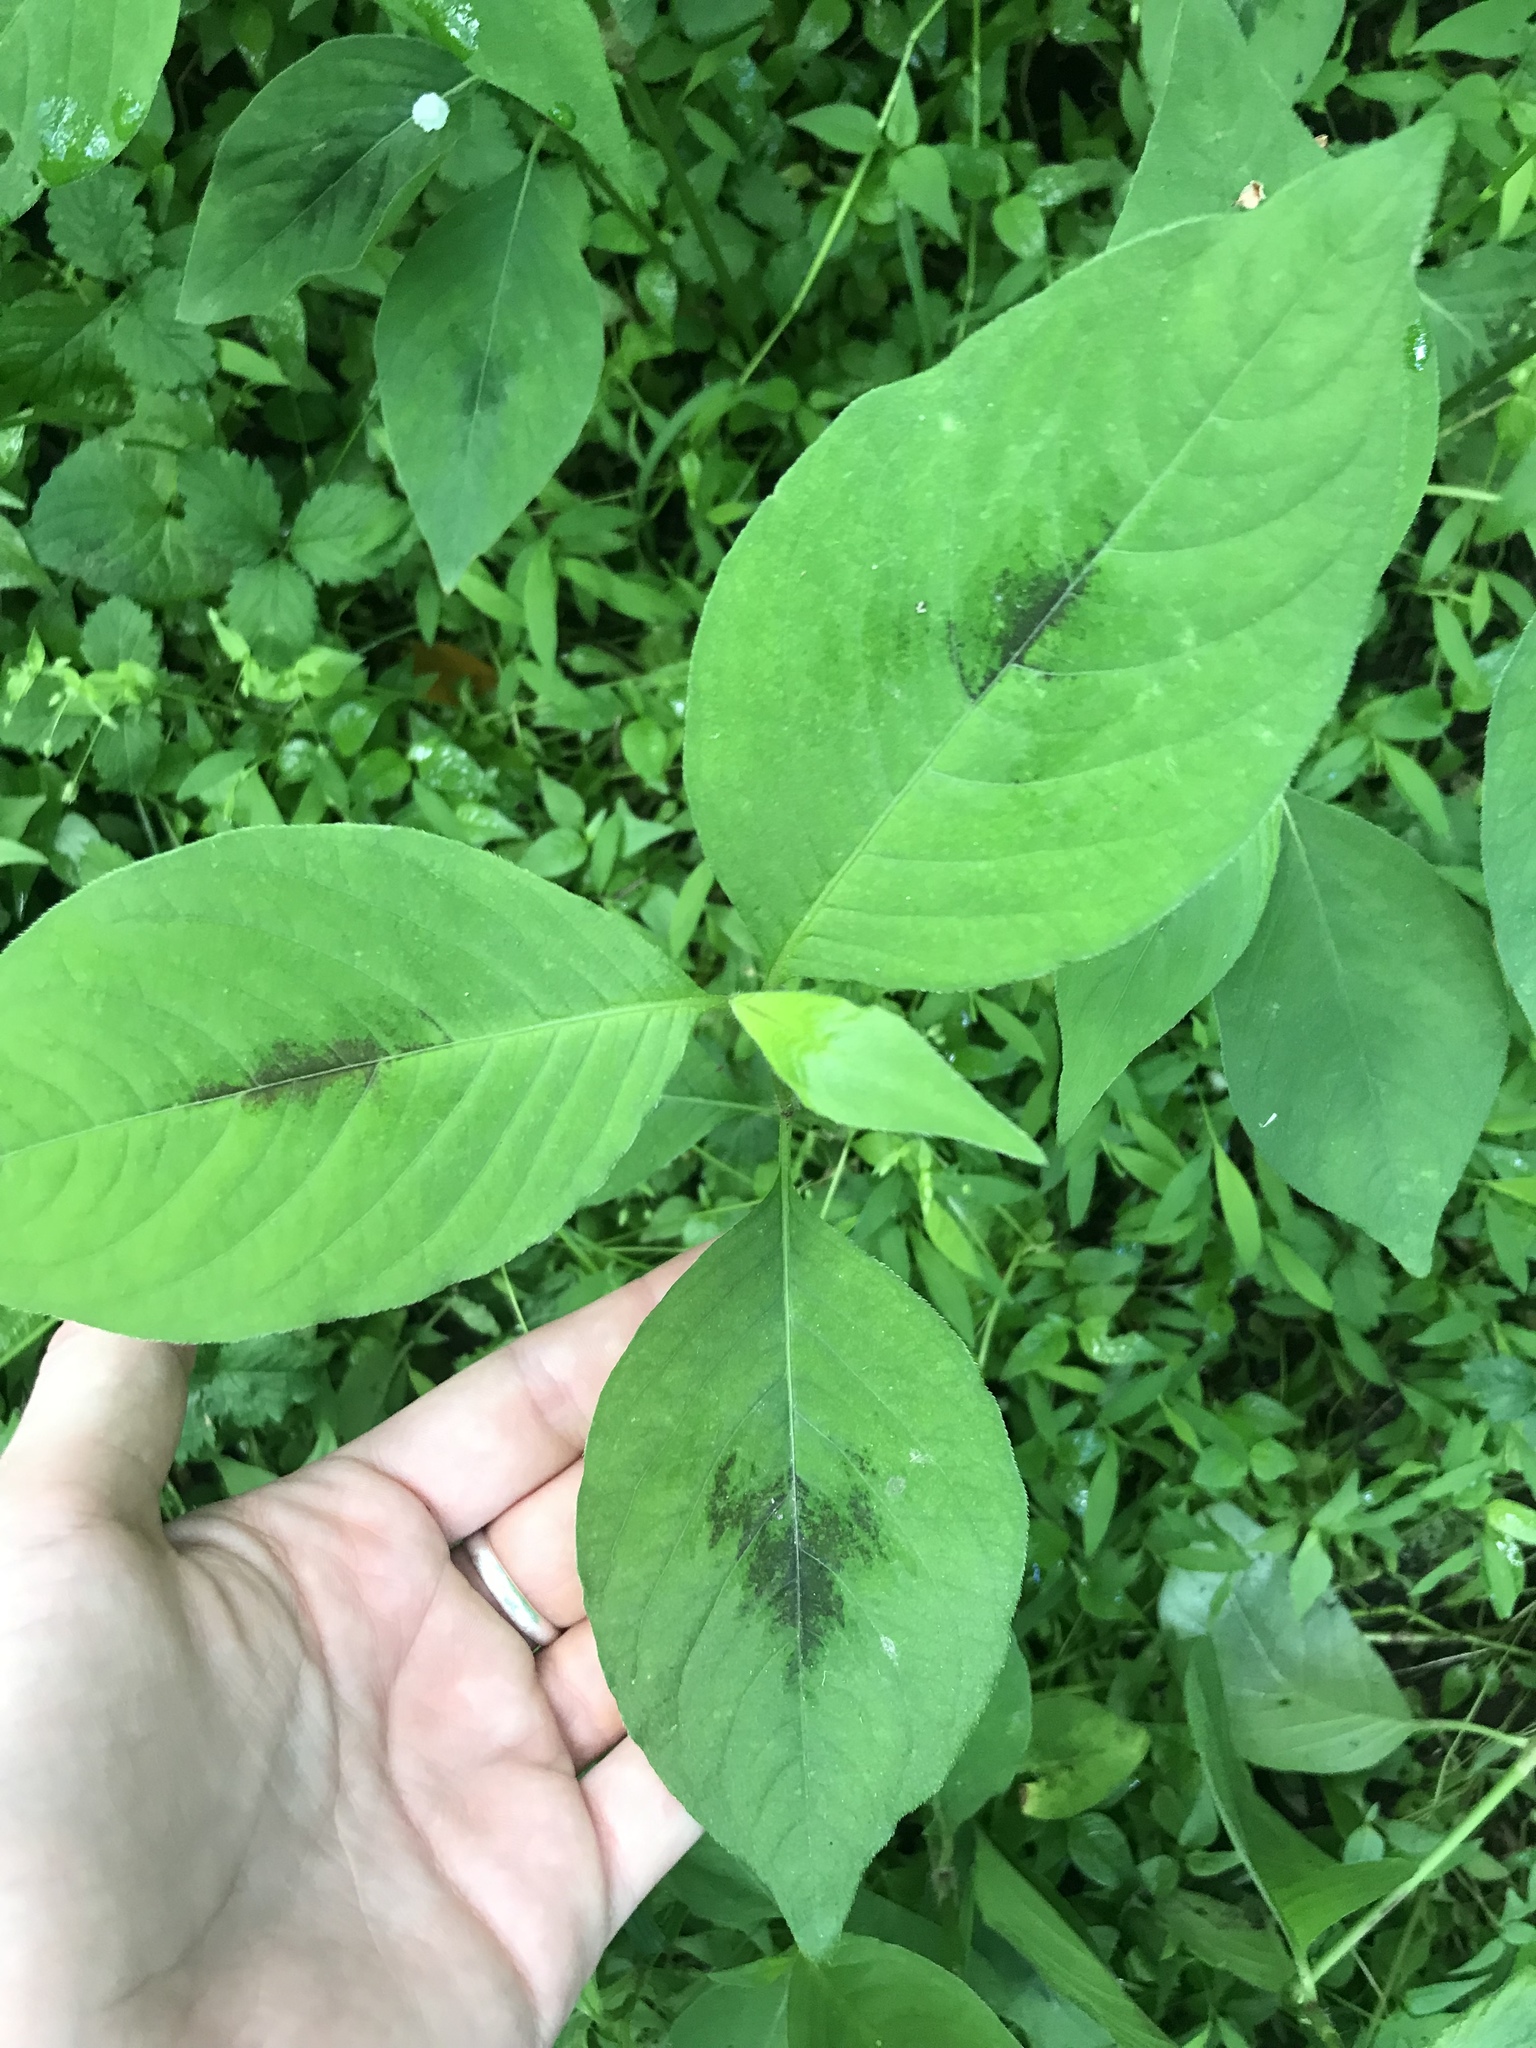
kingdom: Plantae
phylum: Tracheophyta
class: Magnoliopsida
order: Caryophyllales
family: Polygonaceae
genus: Persicaria
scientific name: Persicaria virginiana
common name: Jumpseed
